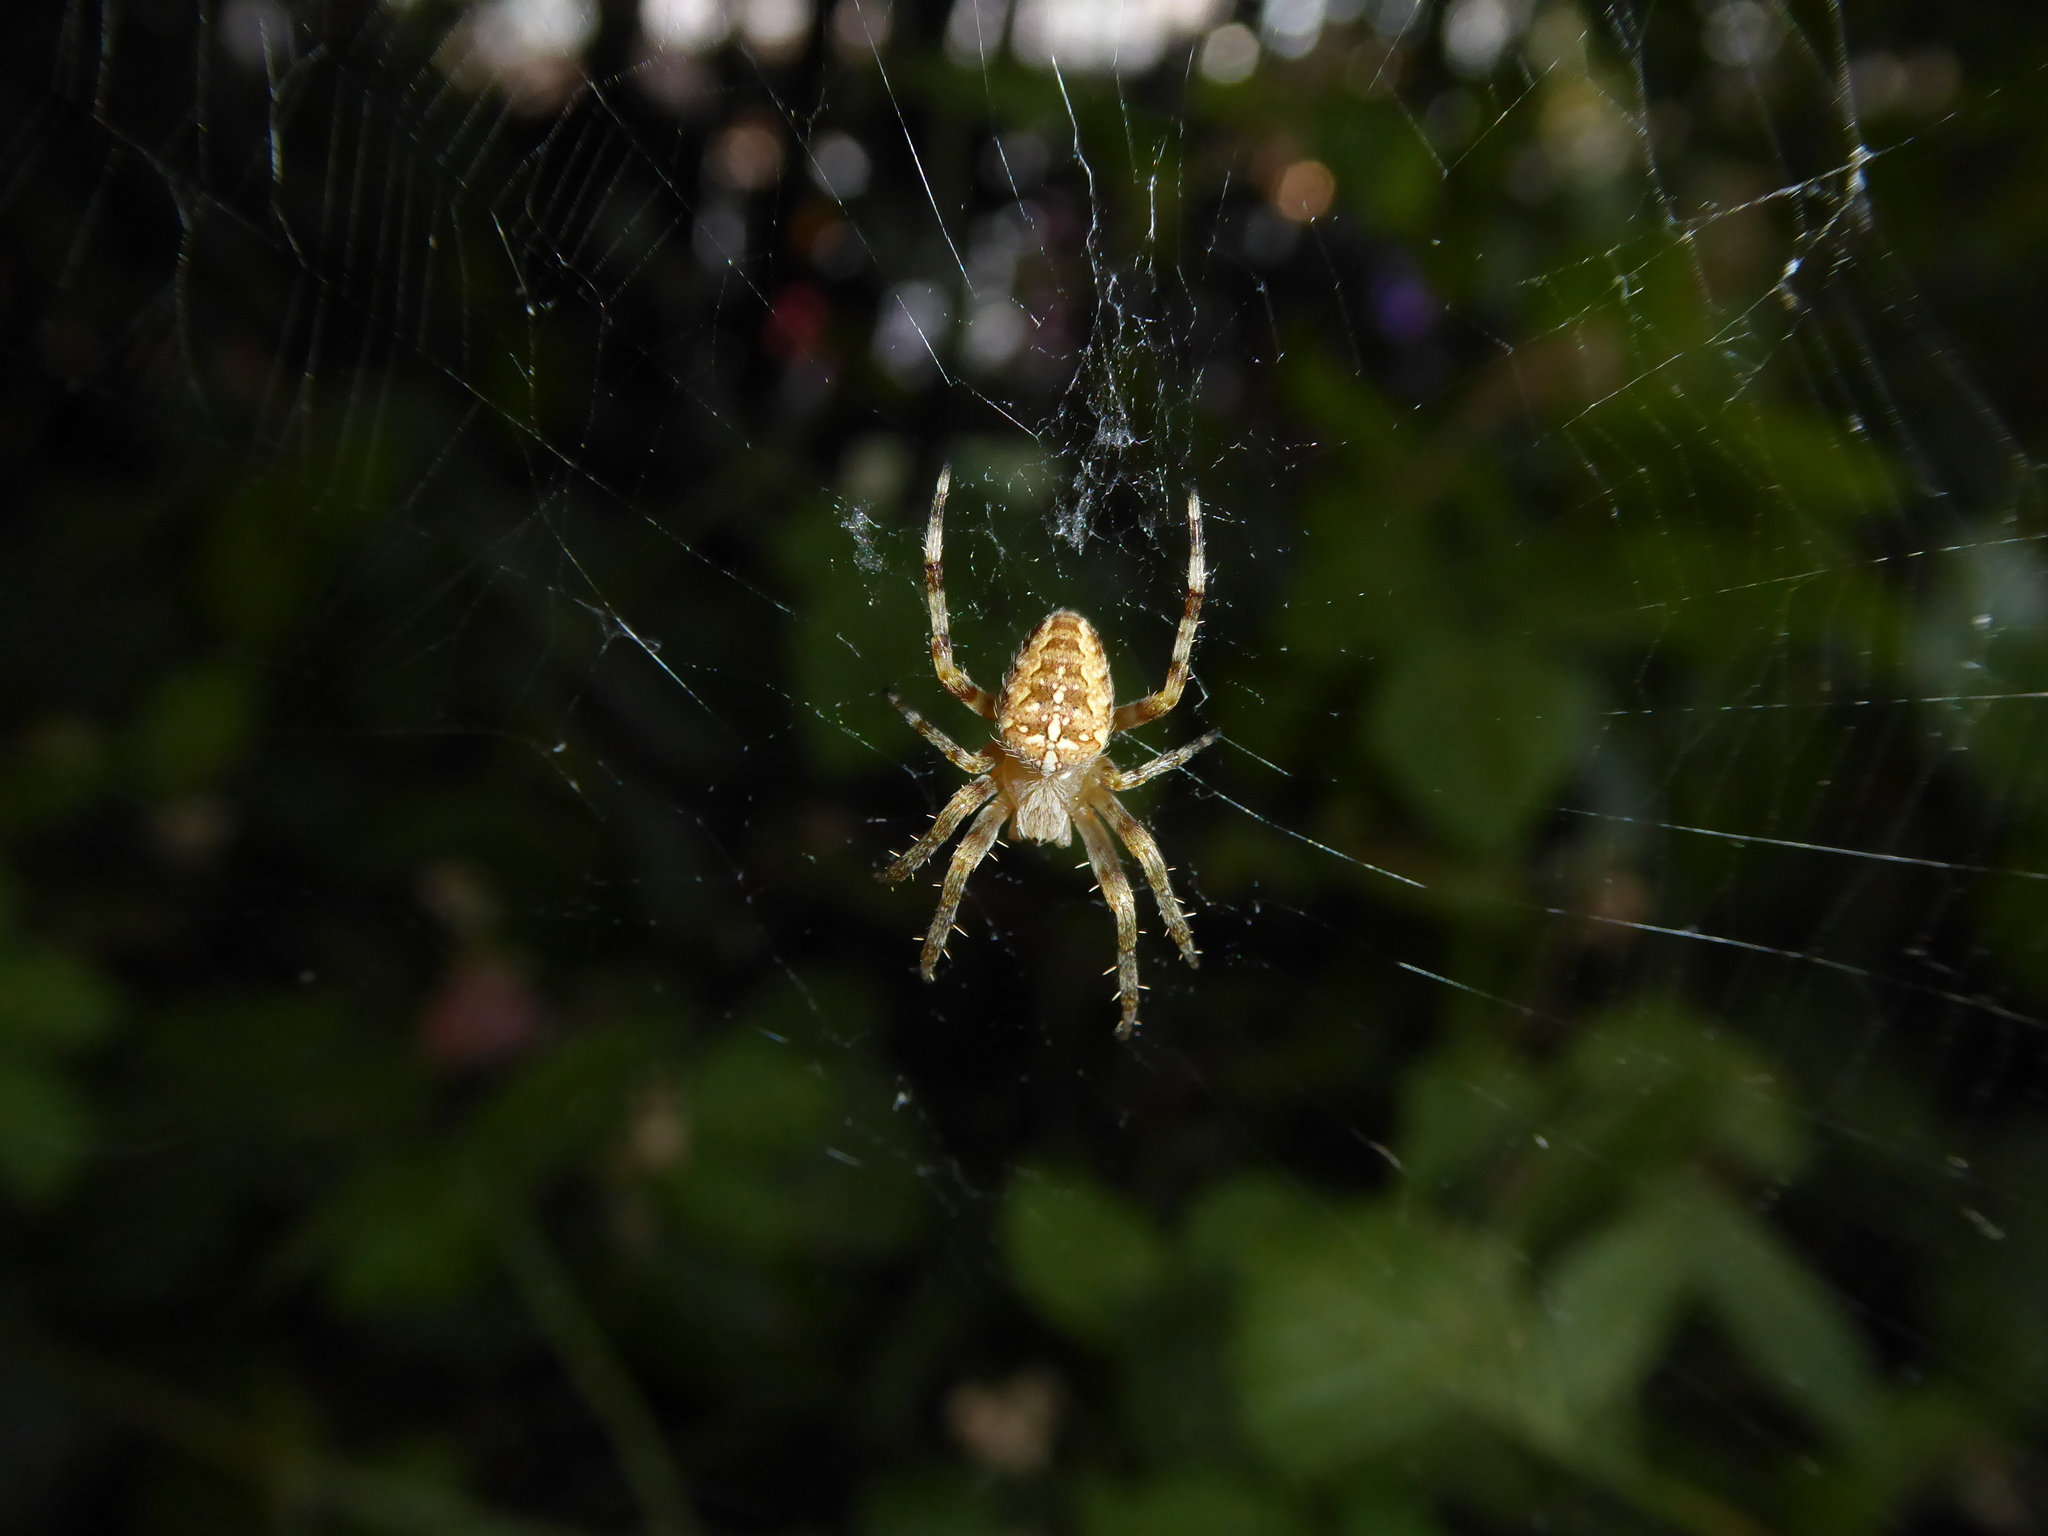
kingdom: Animalia
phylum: Arthropoda
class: Arachnida
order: Araneae
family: Araneidae
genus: Araneus
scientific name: Araneus diadematus
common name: Cross orbweaver
